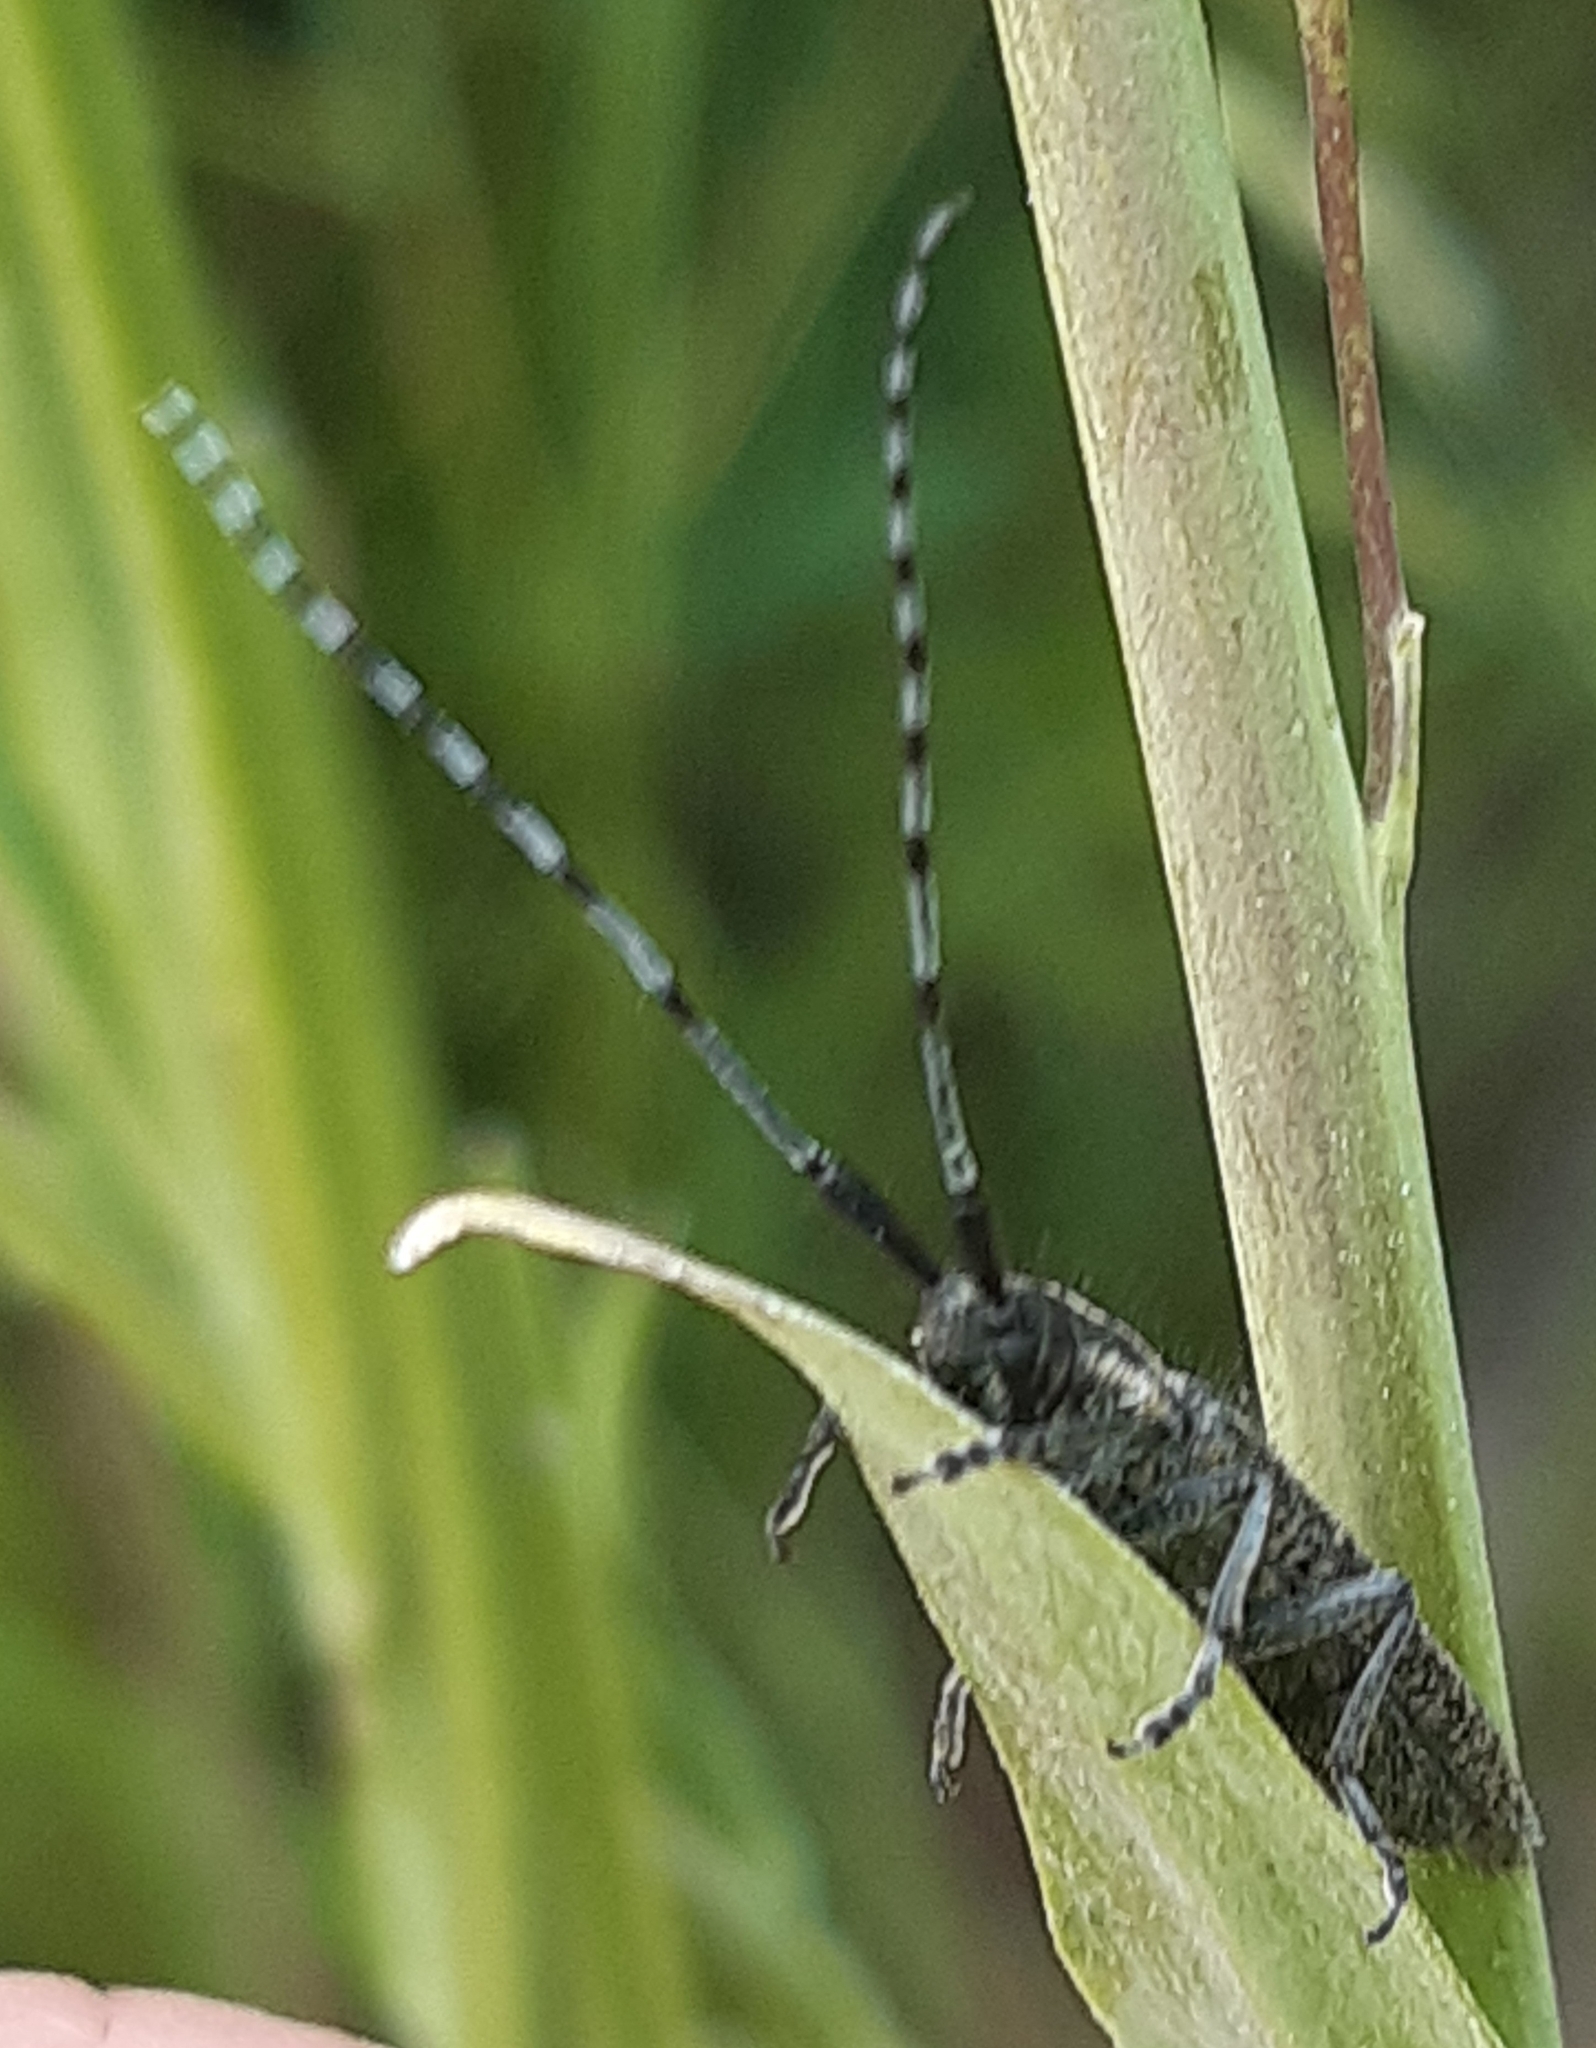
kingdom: Animalia
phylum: Arthropoda
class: Insecta
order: Coleoptera
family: Cerambycidae
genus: Agapanthia
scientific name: Agapanthia villosoviridescens
